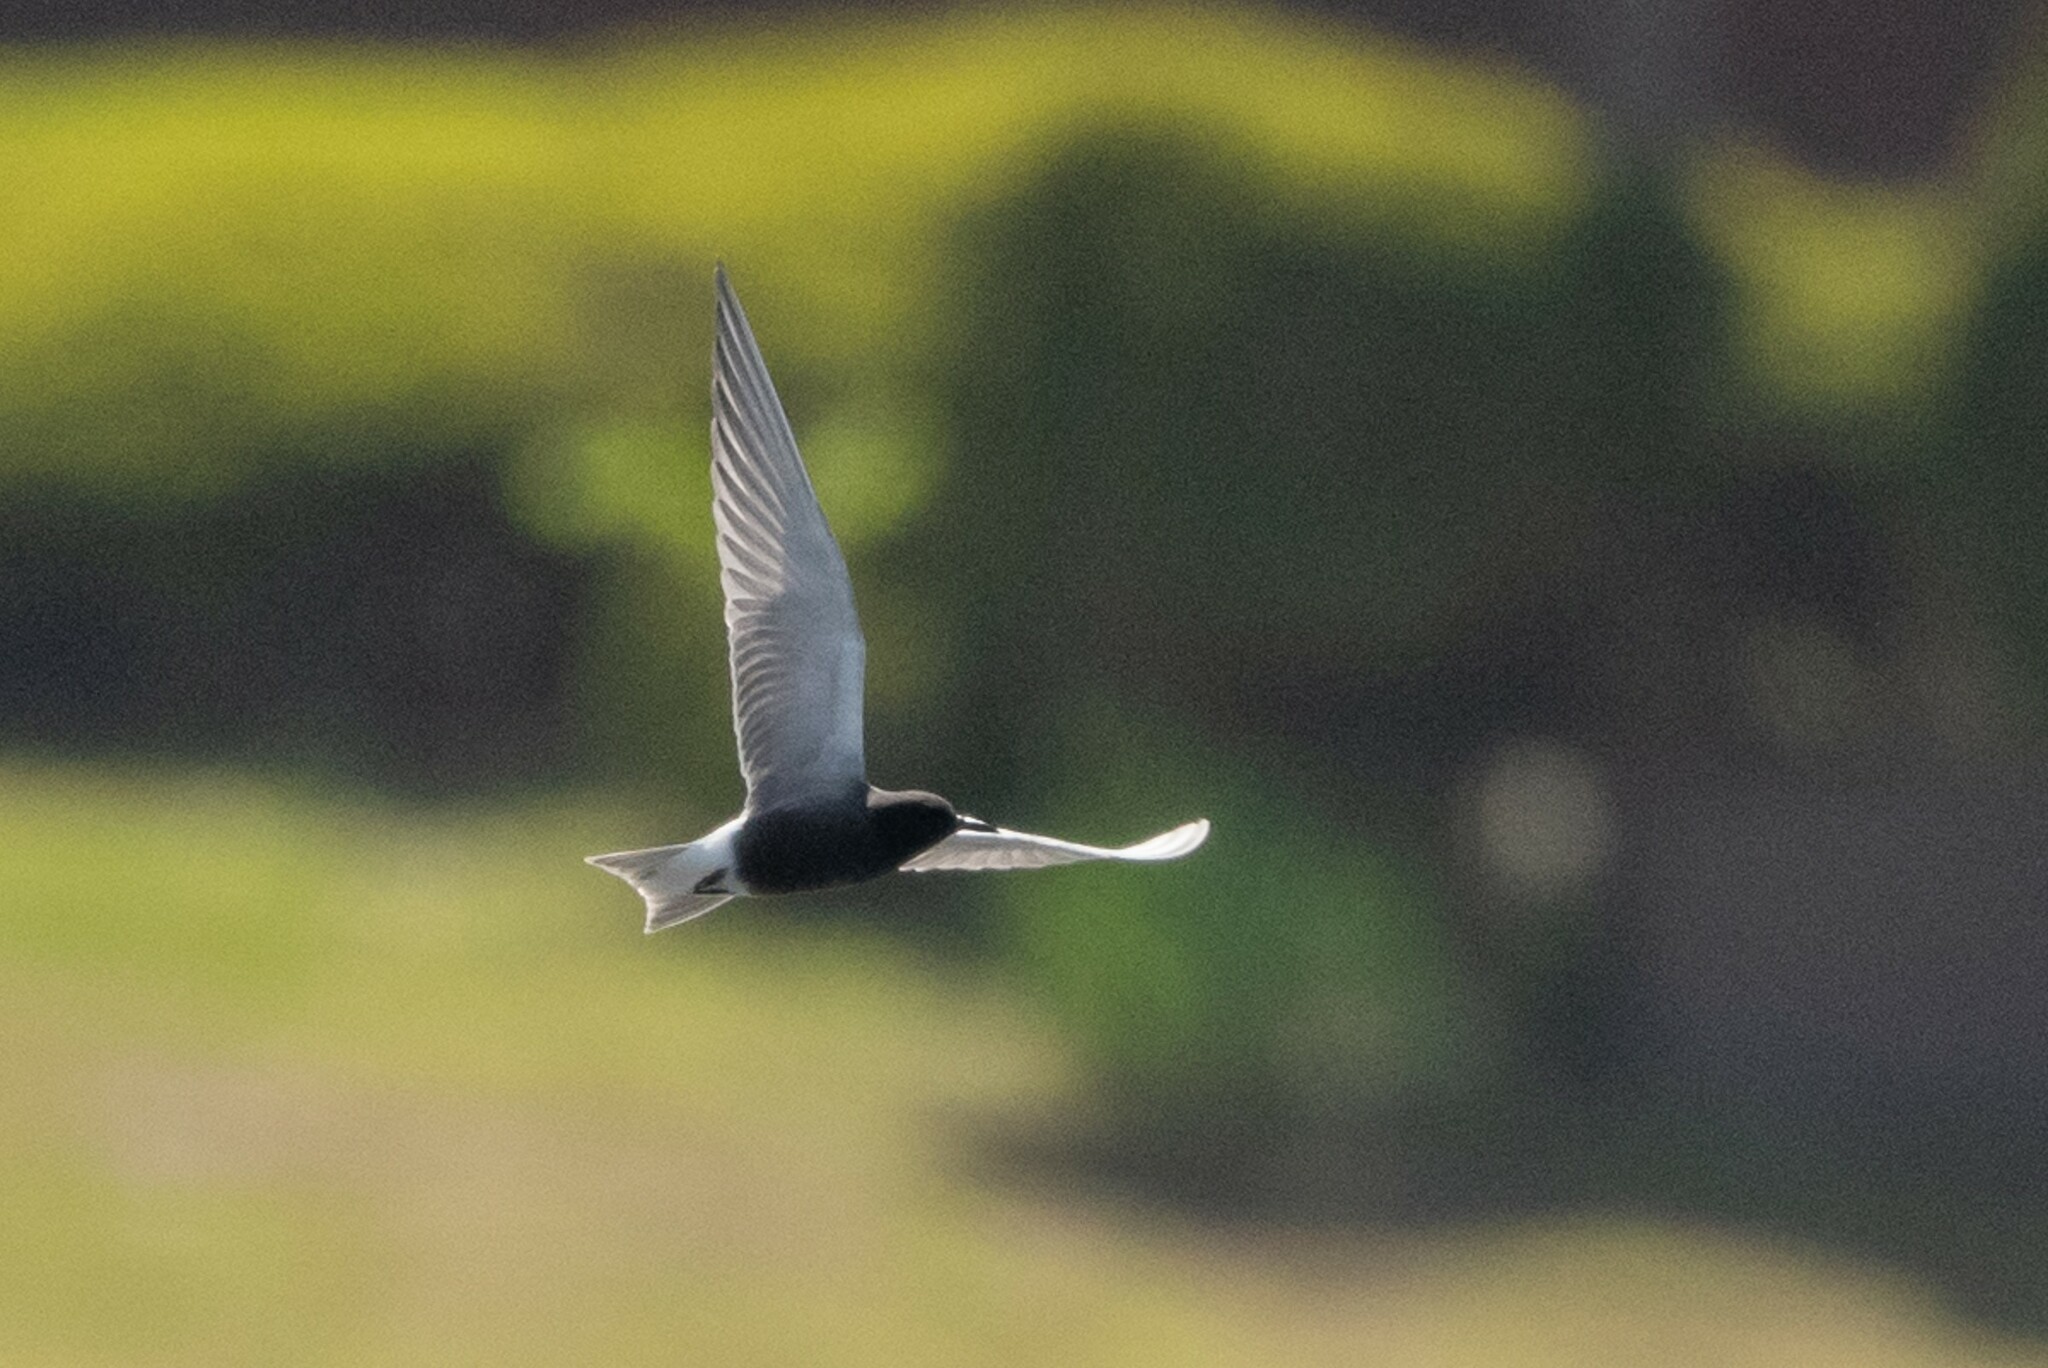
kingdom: Animalia
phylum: Chordata
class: Aves
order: Charadriiformes
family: Laridae
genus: Chlidonias
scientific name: Chlidonias niger
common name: Black tern
